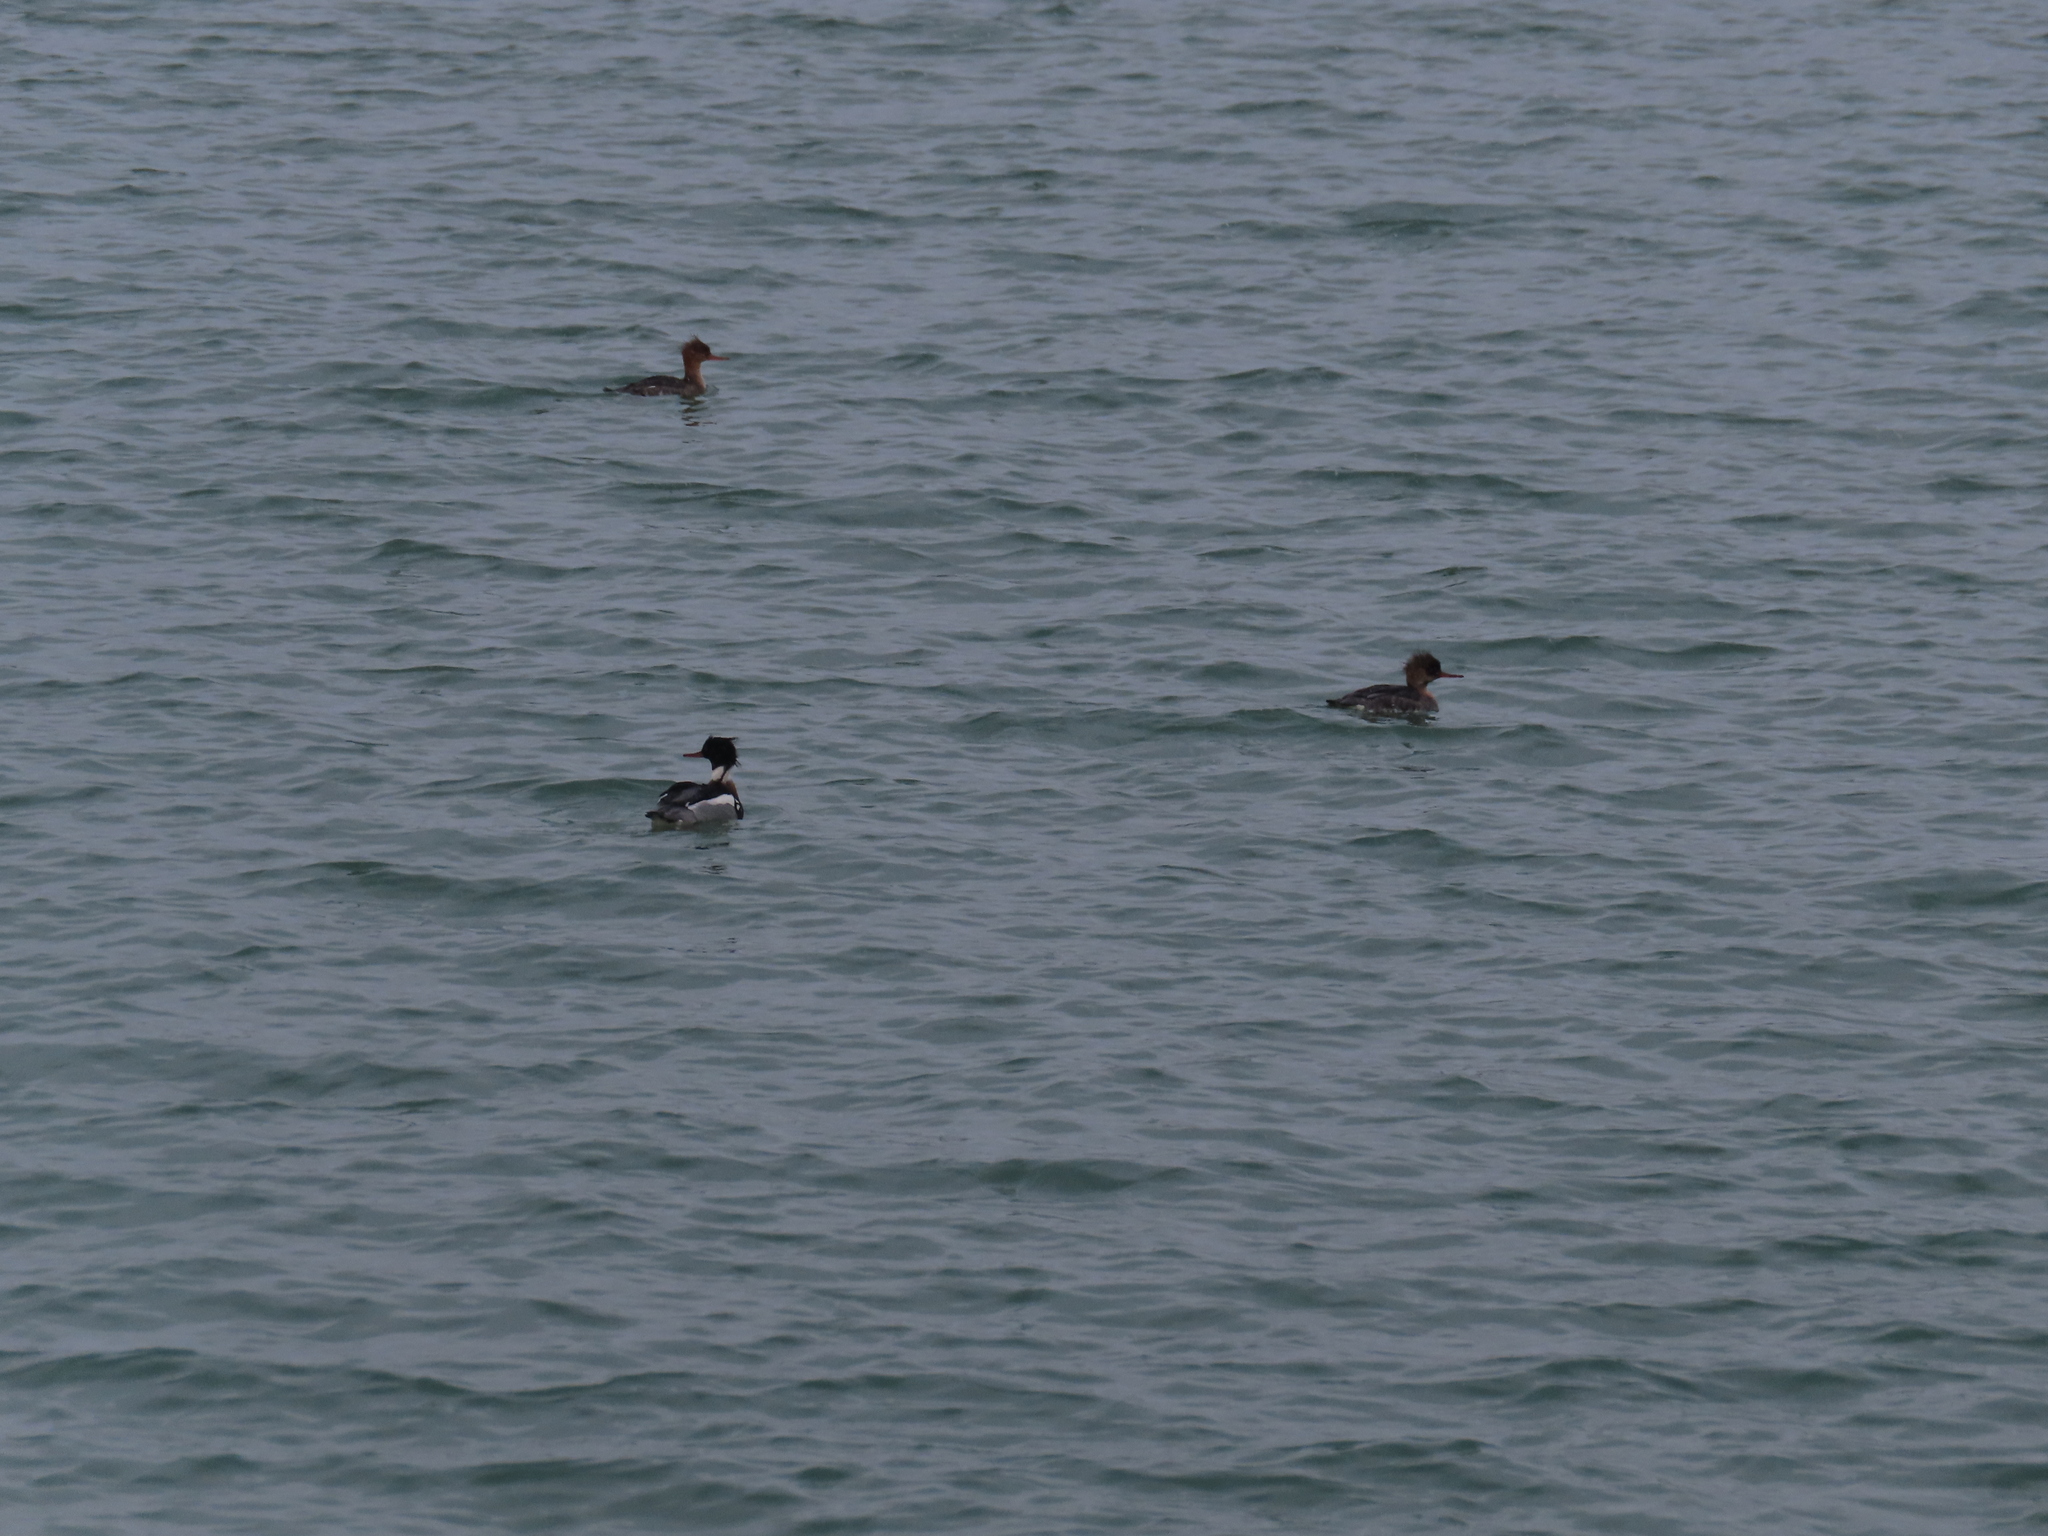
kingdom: Animalia
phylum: Chordata
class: Aves
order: Anseriformes
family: Anatidae
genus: Mergus
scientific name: Mergus serrator
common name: Red-breasted merganser
